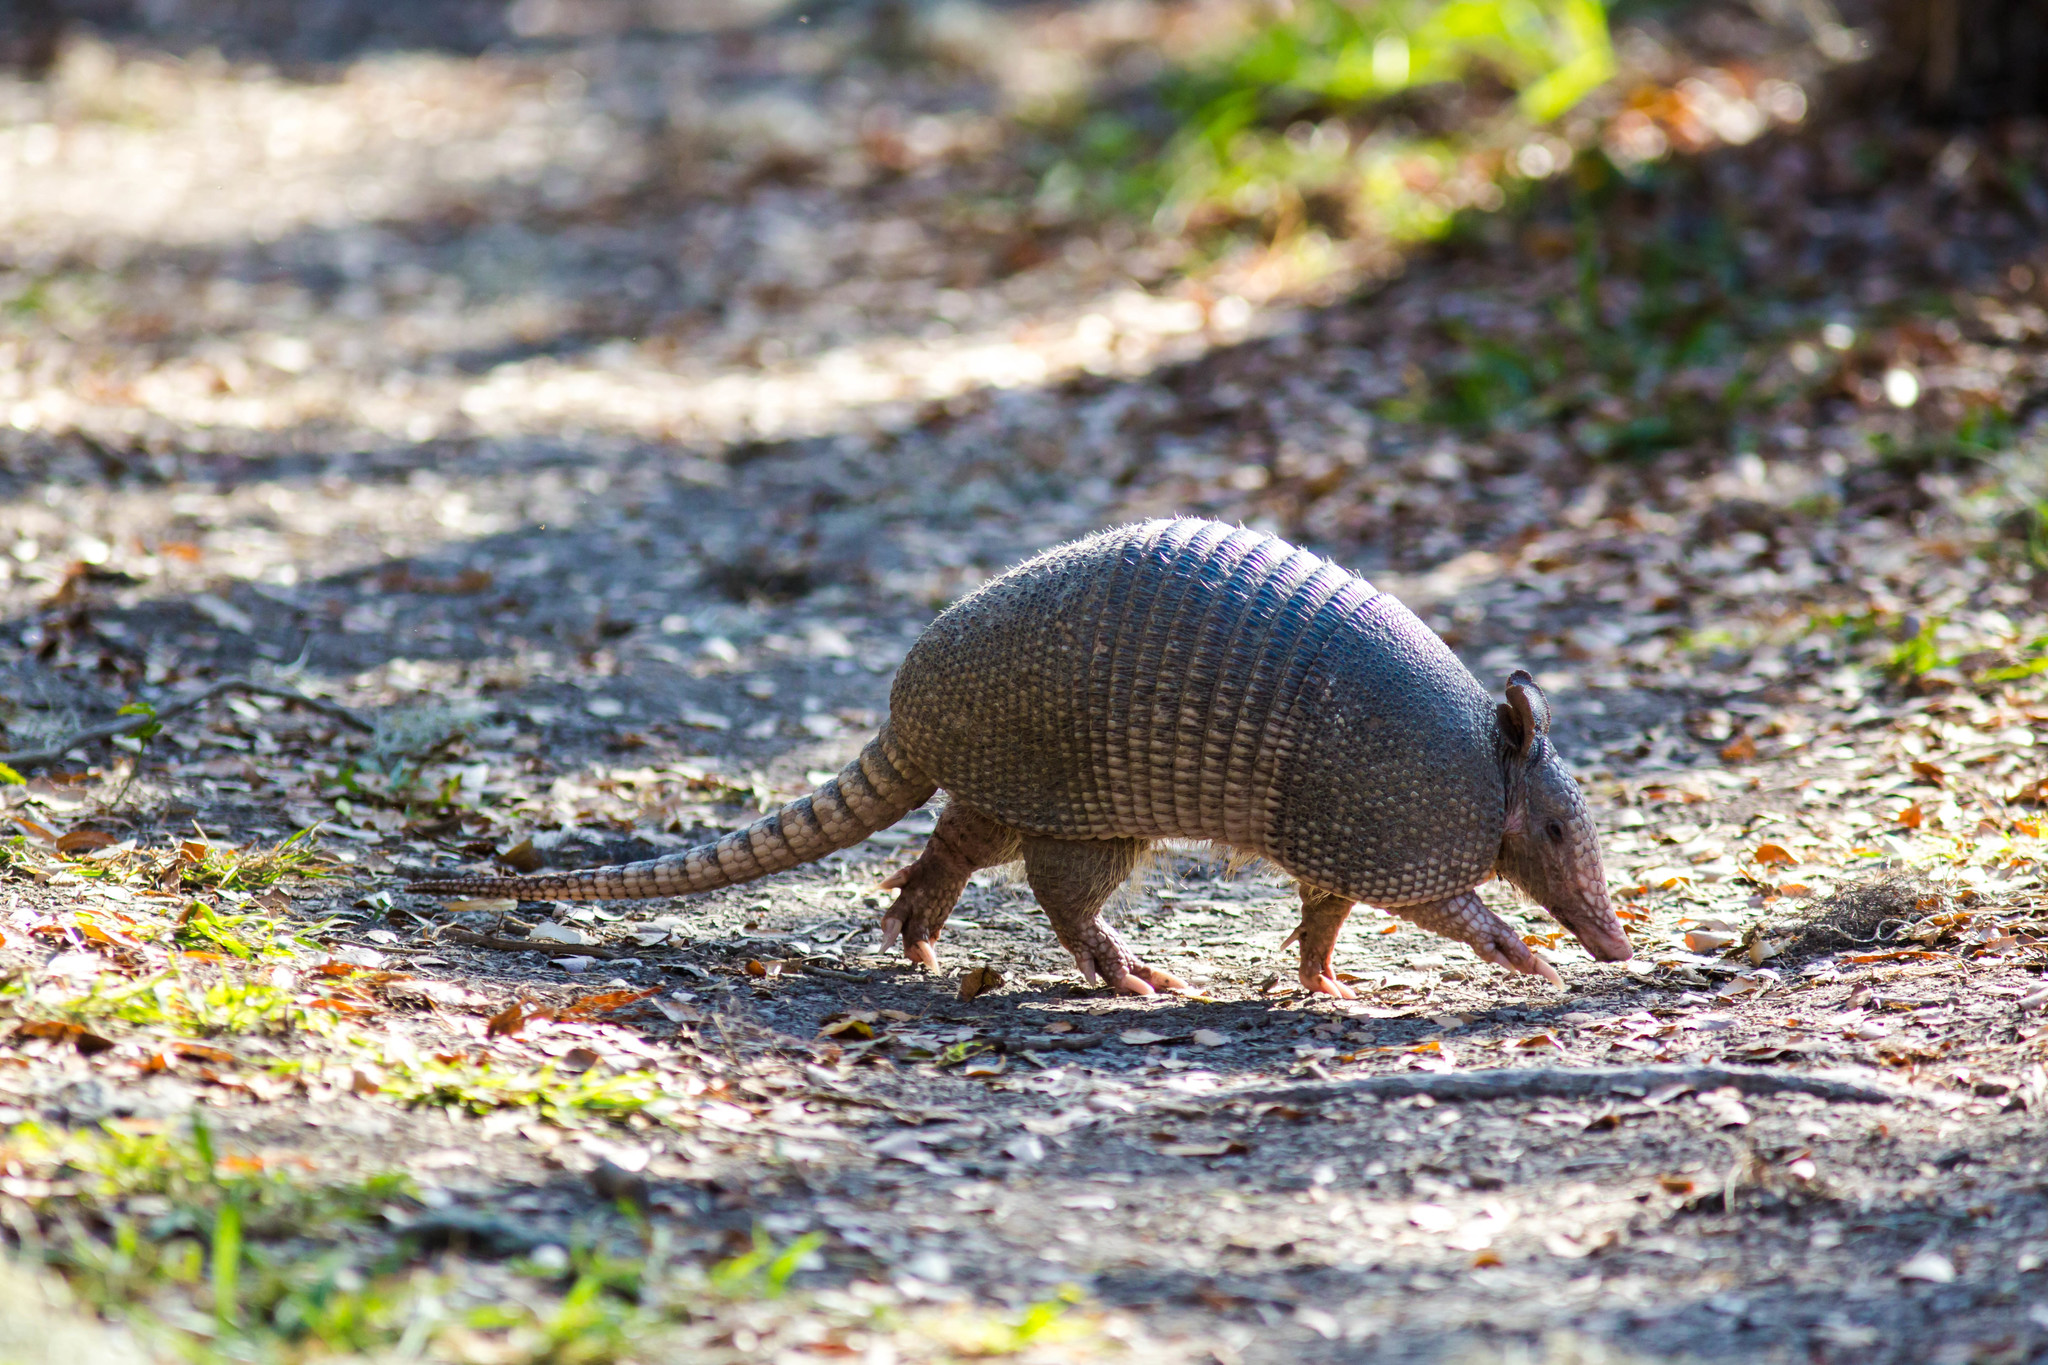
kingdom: Animalia
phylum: Chordata
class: Mammalia
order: Cingulata
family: Dasypodidae
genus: Dasypus
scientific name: Dasypus novemcinctus
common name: Nine-banded armadillo
